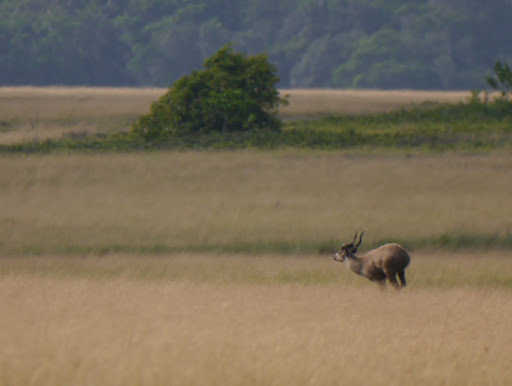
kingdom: Animalia
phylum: Chordata
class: Mammalia
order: Artiodactyla
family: Bovidae
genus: Tragelaphus
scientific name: Tragelaphus spekii
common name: Sitatunga
